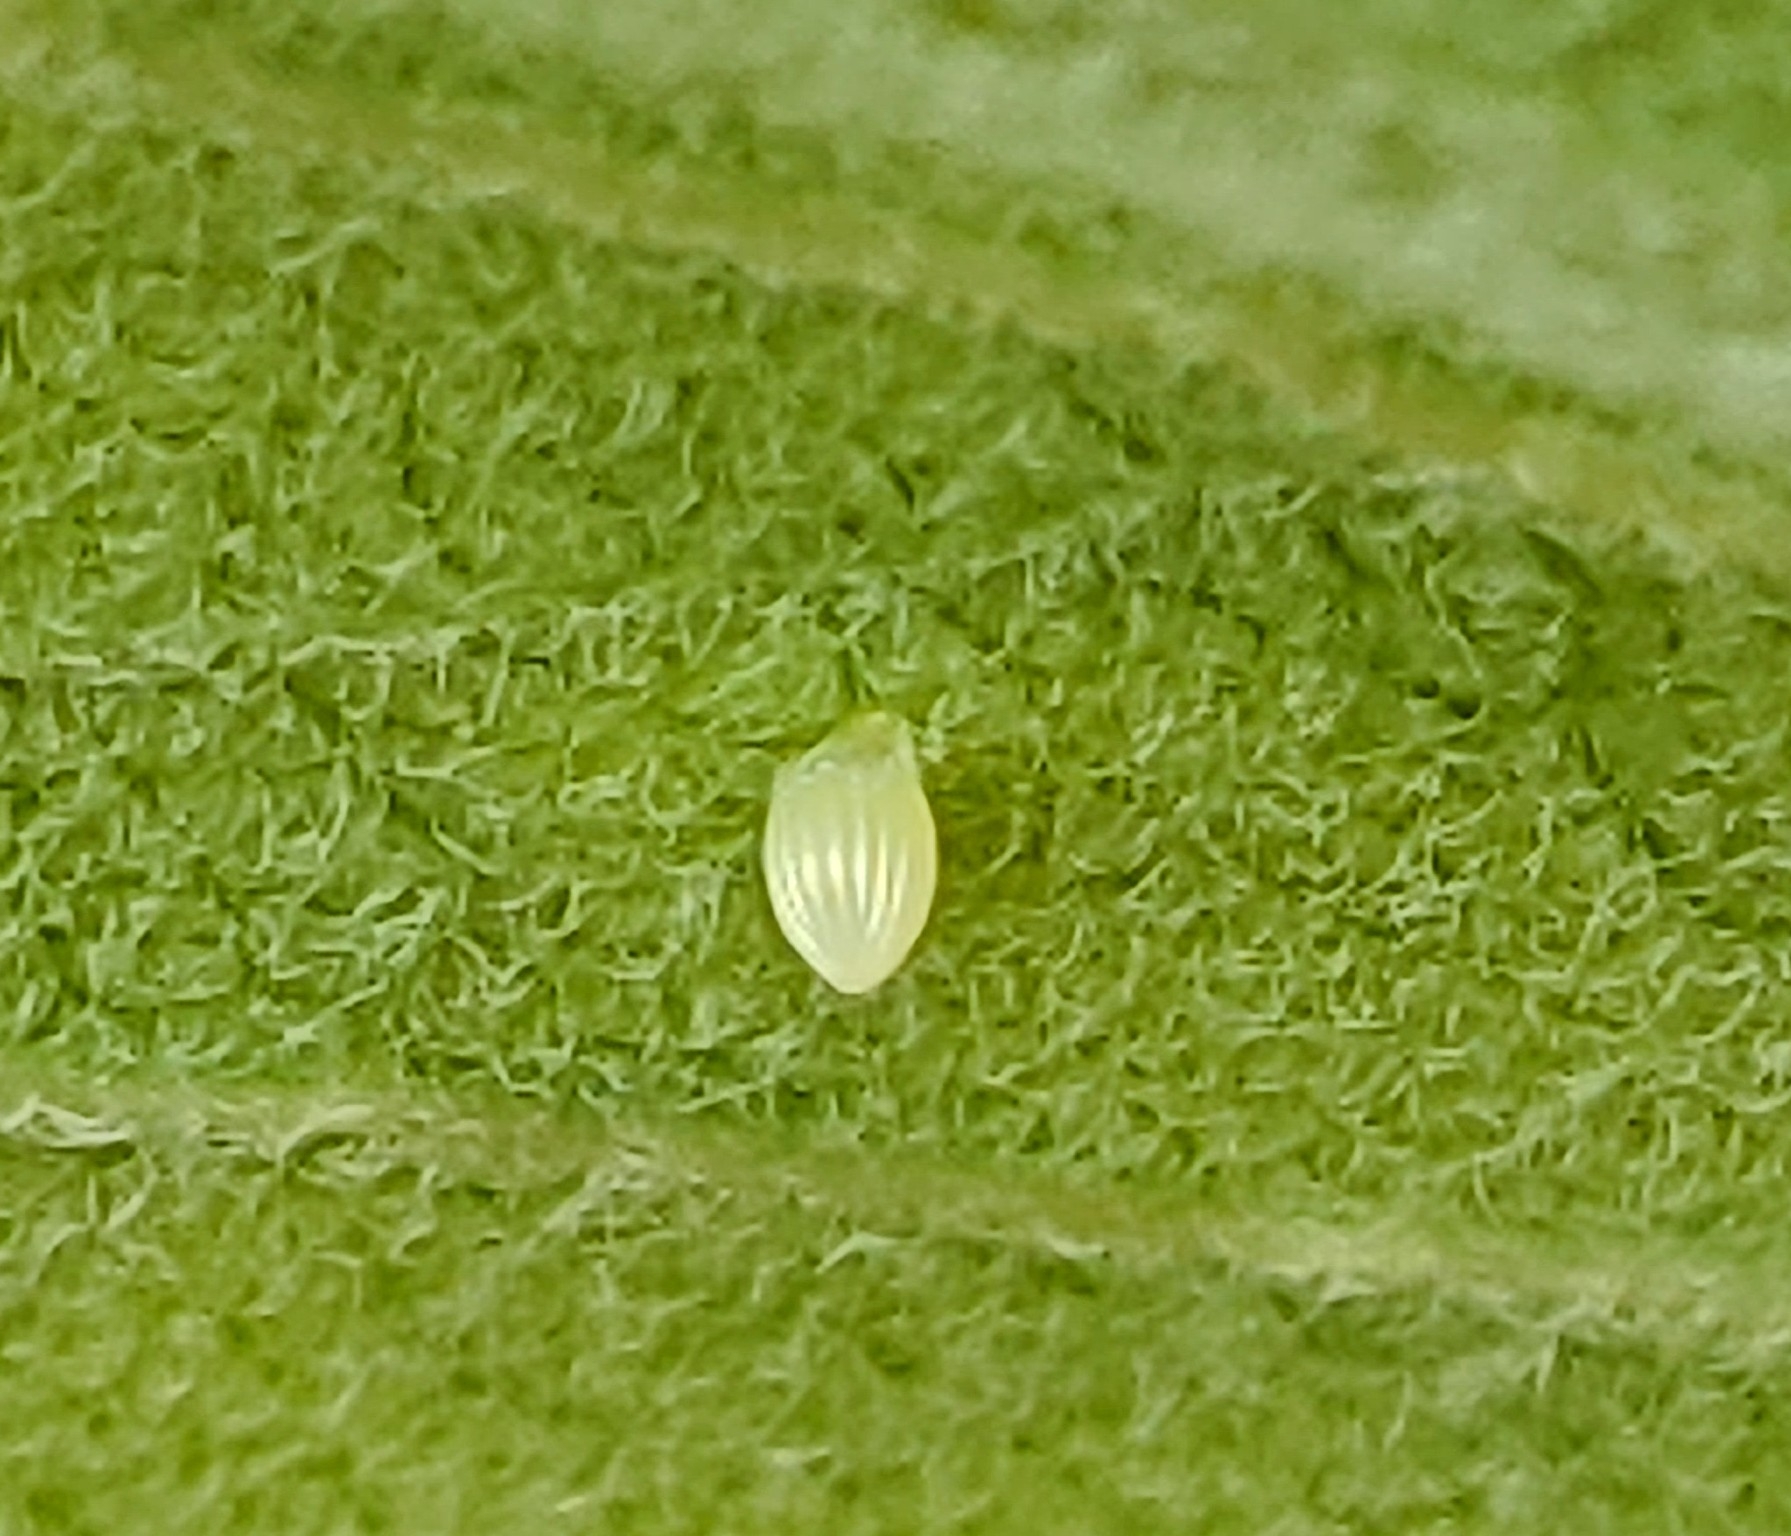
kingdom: Animalia
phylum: Arthropoda
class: Insecta
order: Lepidoptera
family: Nymphalidae
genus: Danaus
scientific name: Danaus plexippus
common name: Monarch
